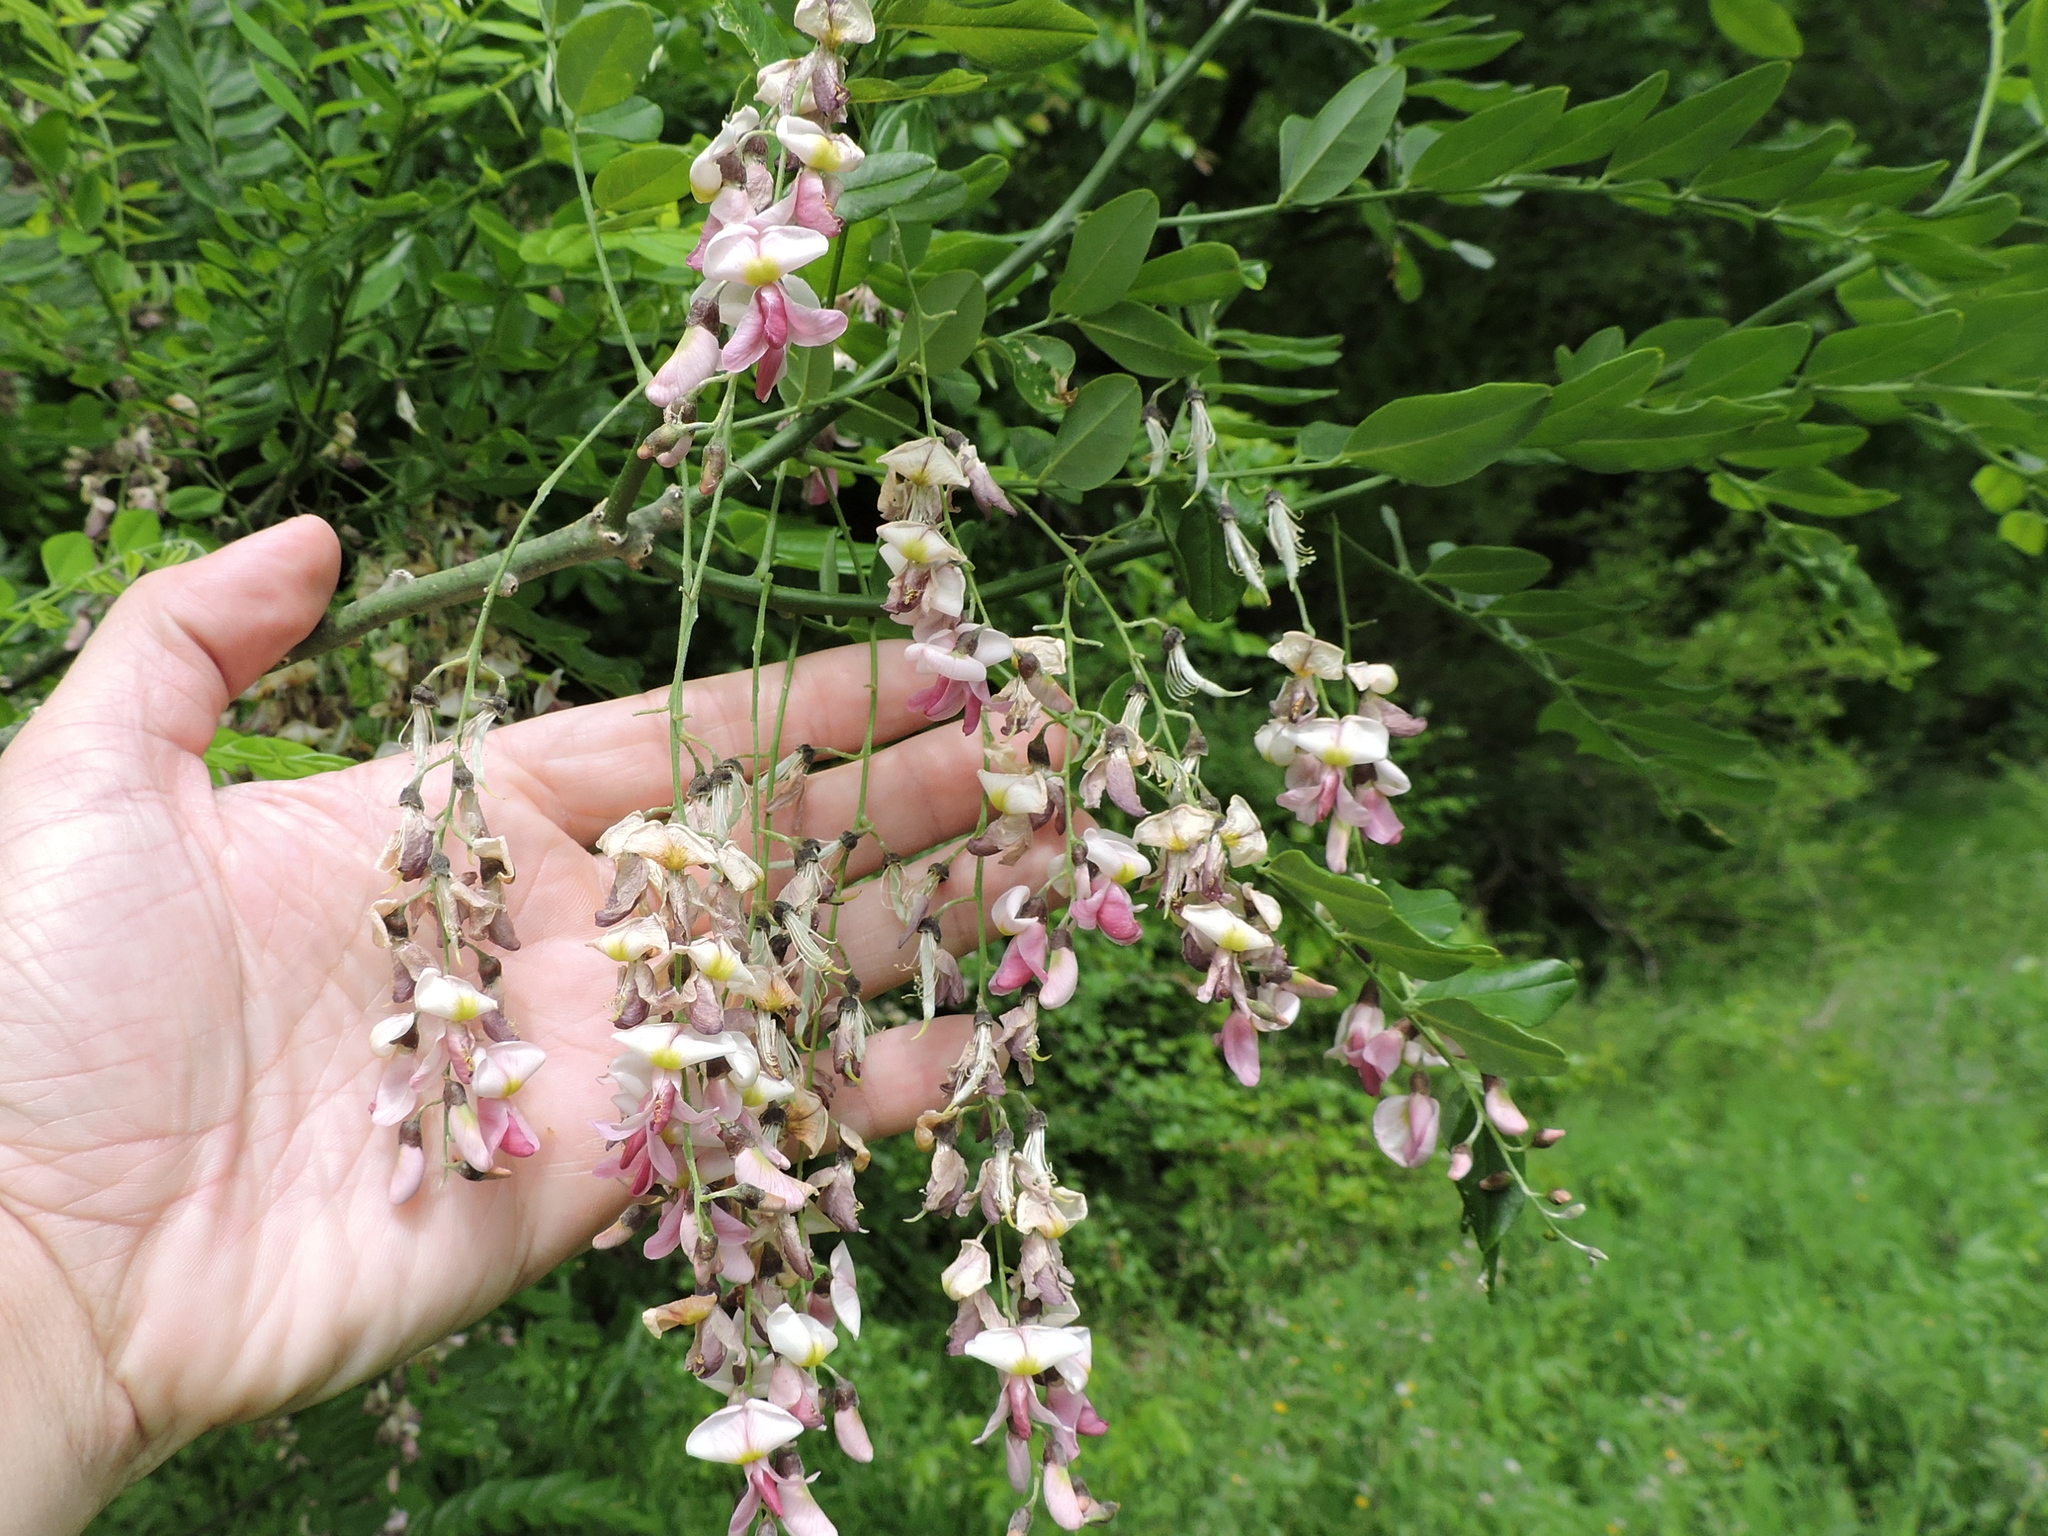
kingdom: Plantae
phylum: Tracheophyta
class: Magnoliopsida
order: Fabales
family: Fabaceae
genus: Styphnolobium
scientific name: Styphnolobium affine
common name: Texas sophora
